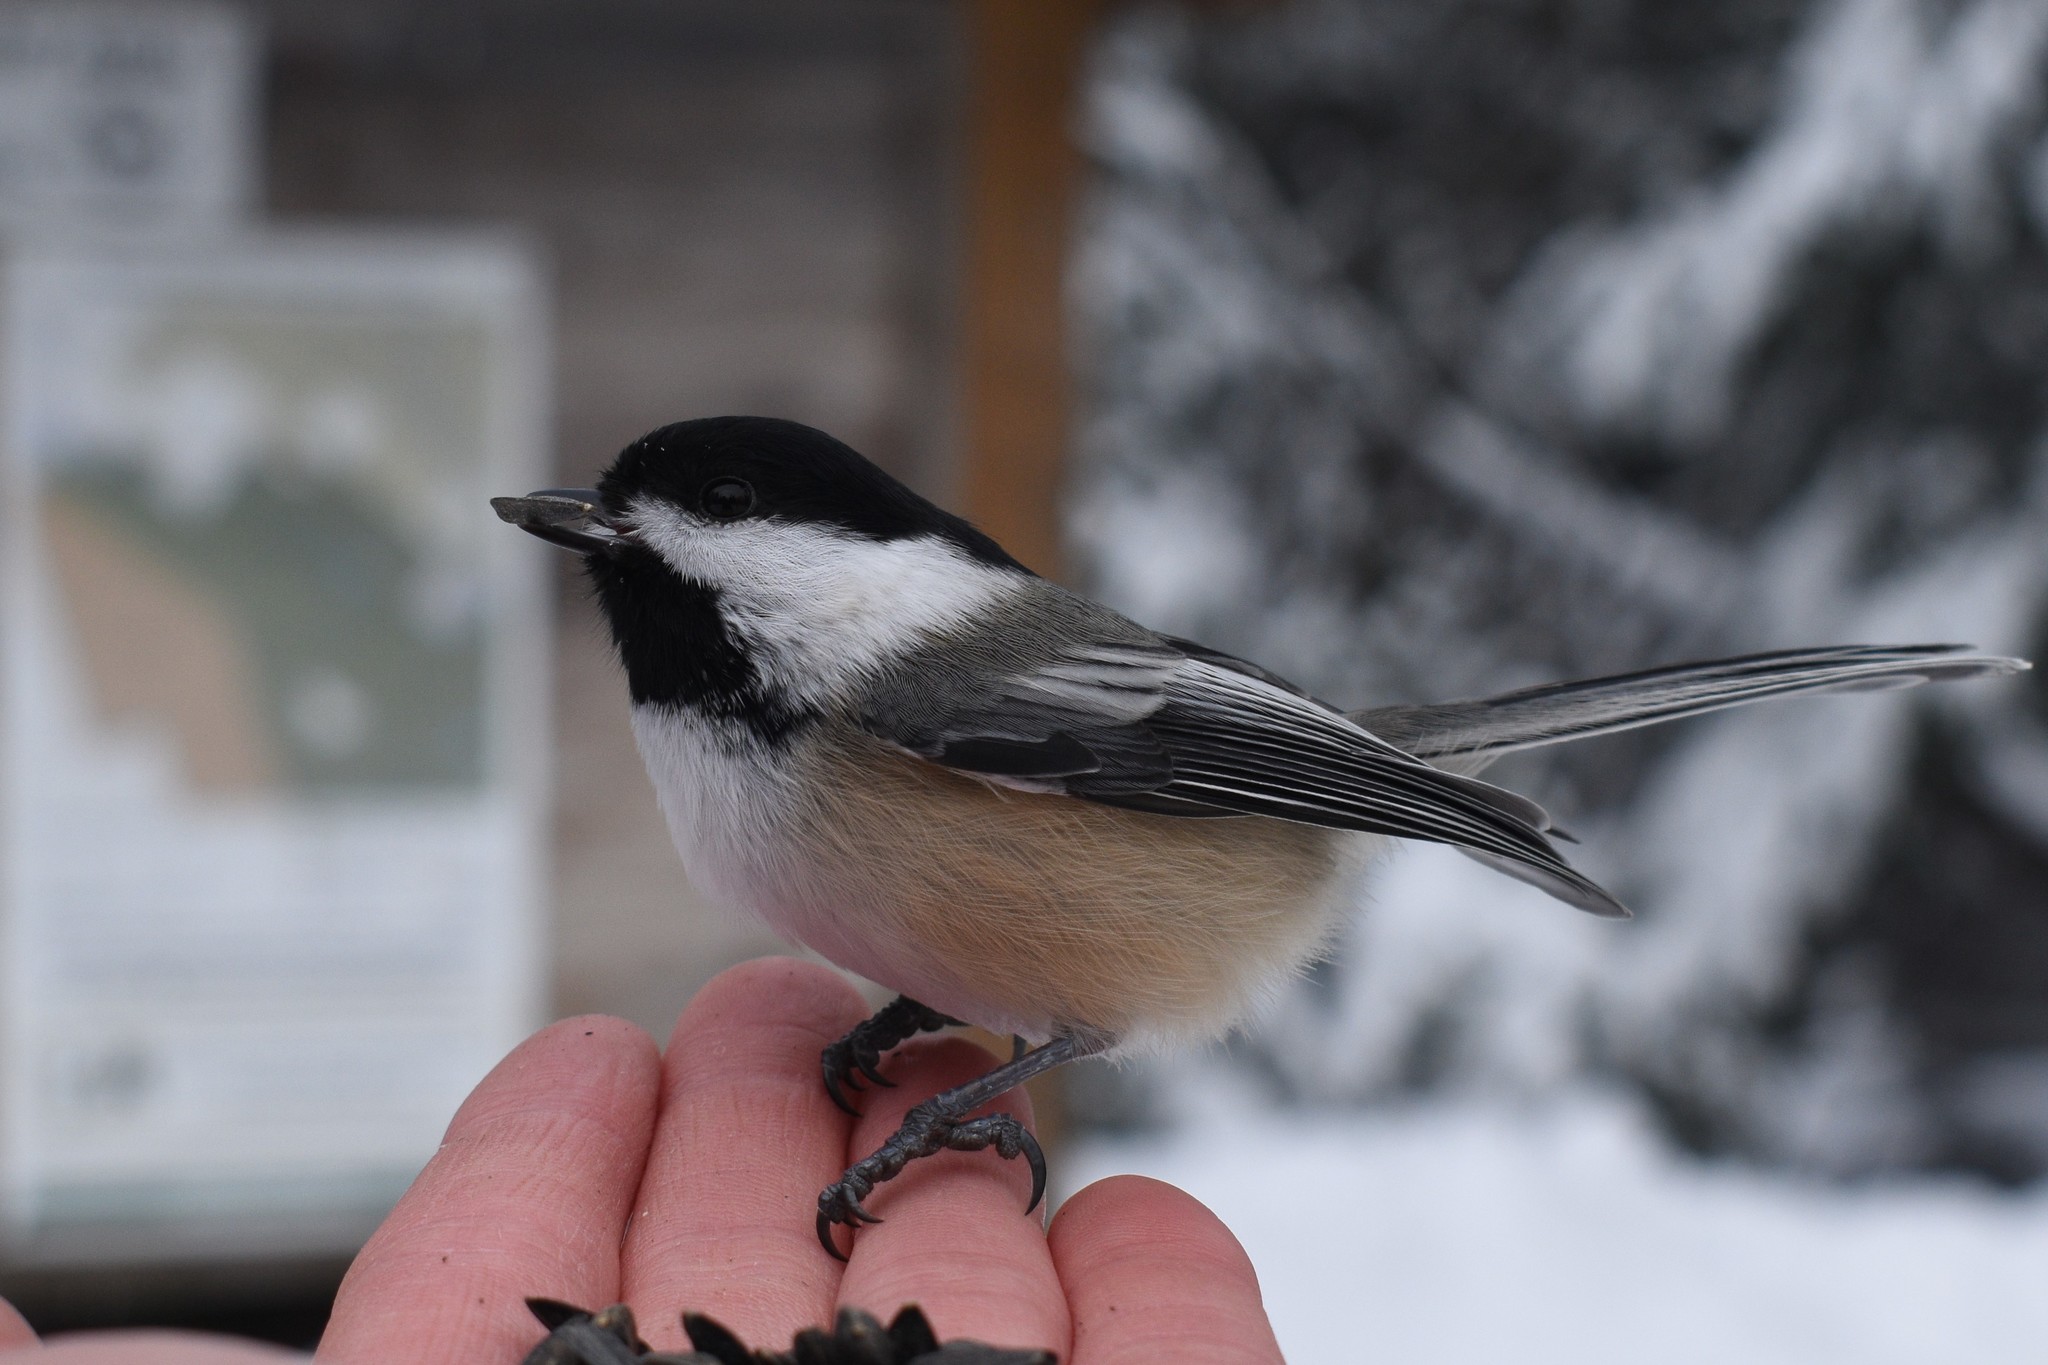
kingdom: Animalia
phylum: Chordata
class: Aves
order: Passeriformes
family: Paridae
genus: Poecile
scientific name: Poecile atricapillus
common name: Black-capped chickadee
